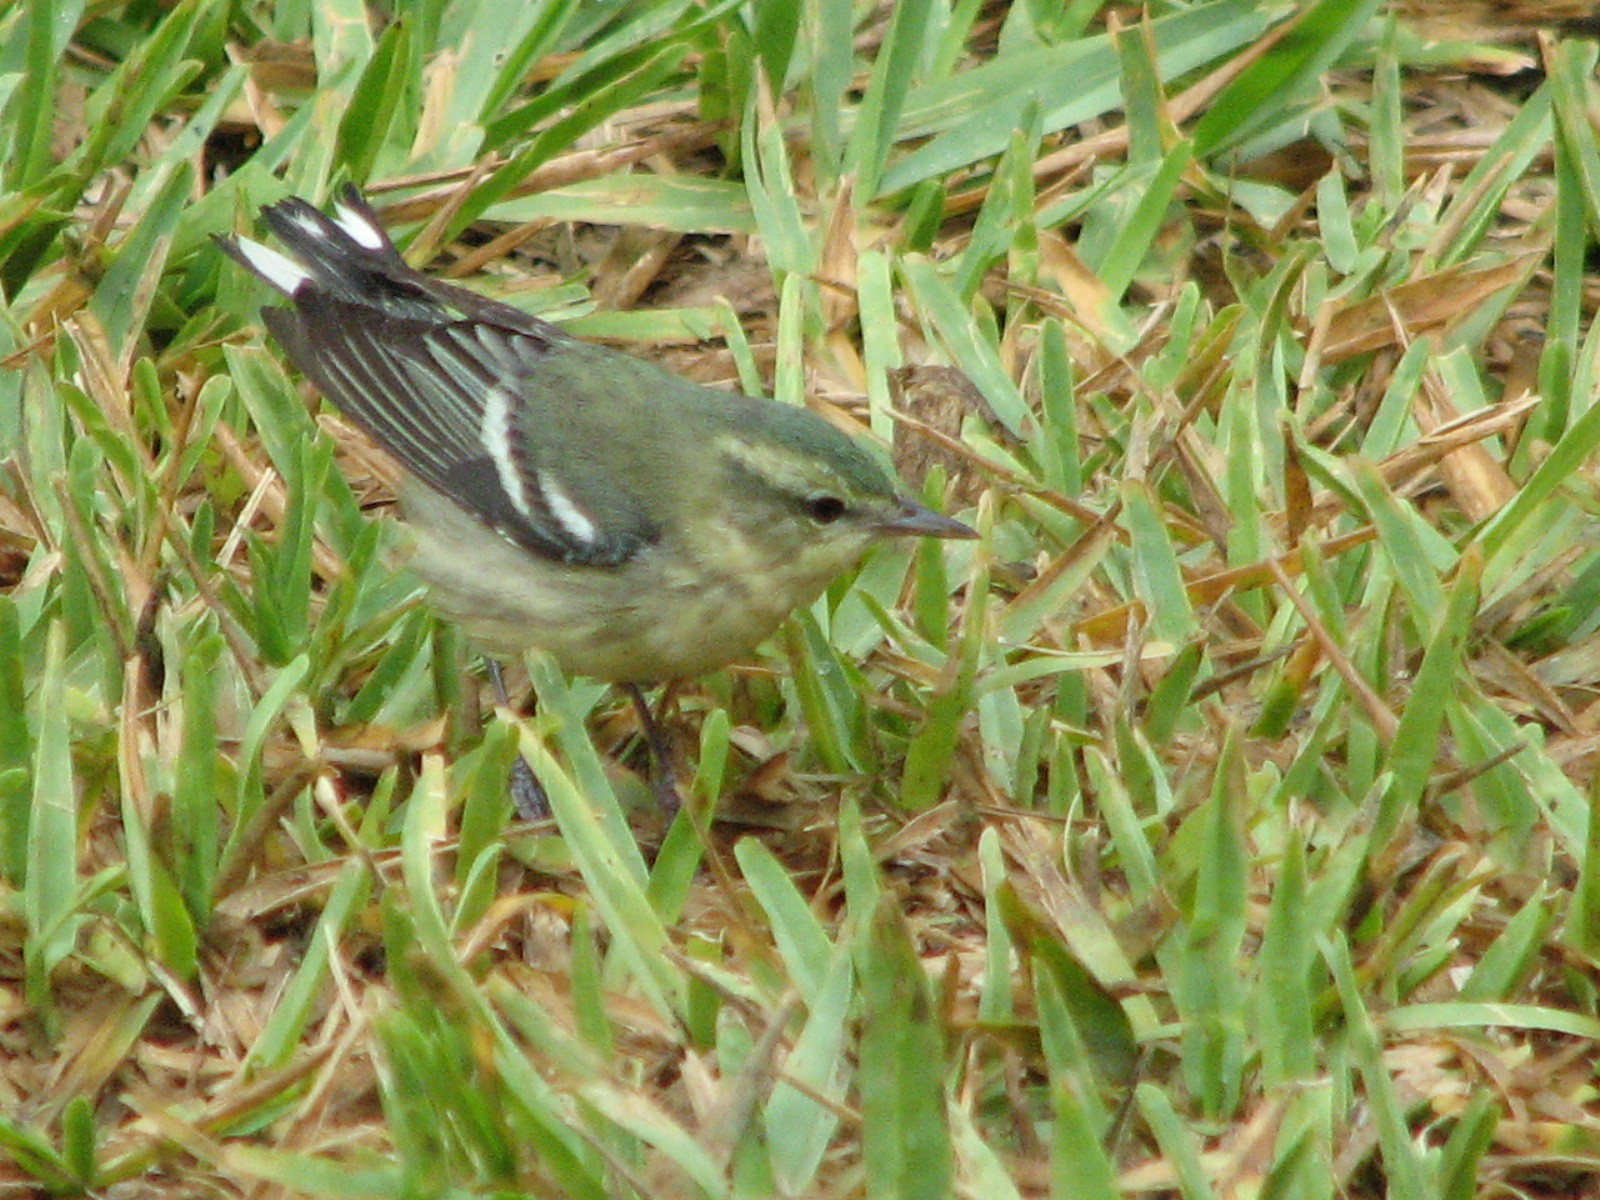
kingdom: Animalia
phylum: Chordata
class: Aves
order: Passeriformes
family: Parulidae
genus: Setophaga
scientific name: Setophaga cerulea
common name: Cerulean warbler
